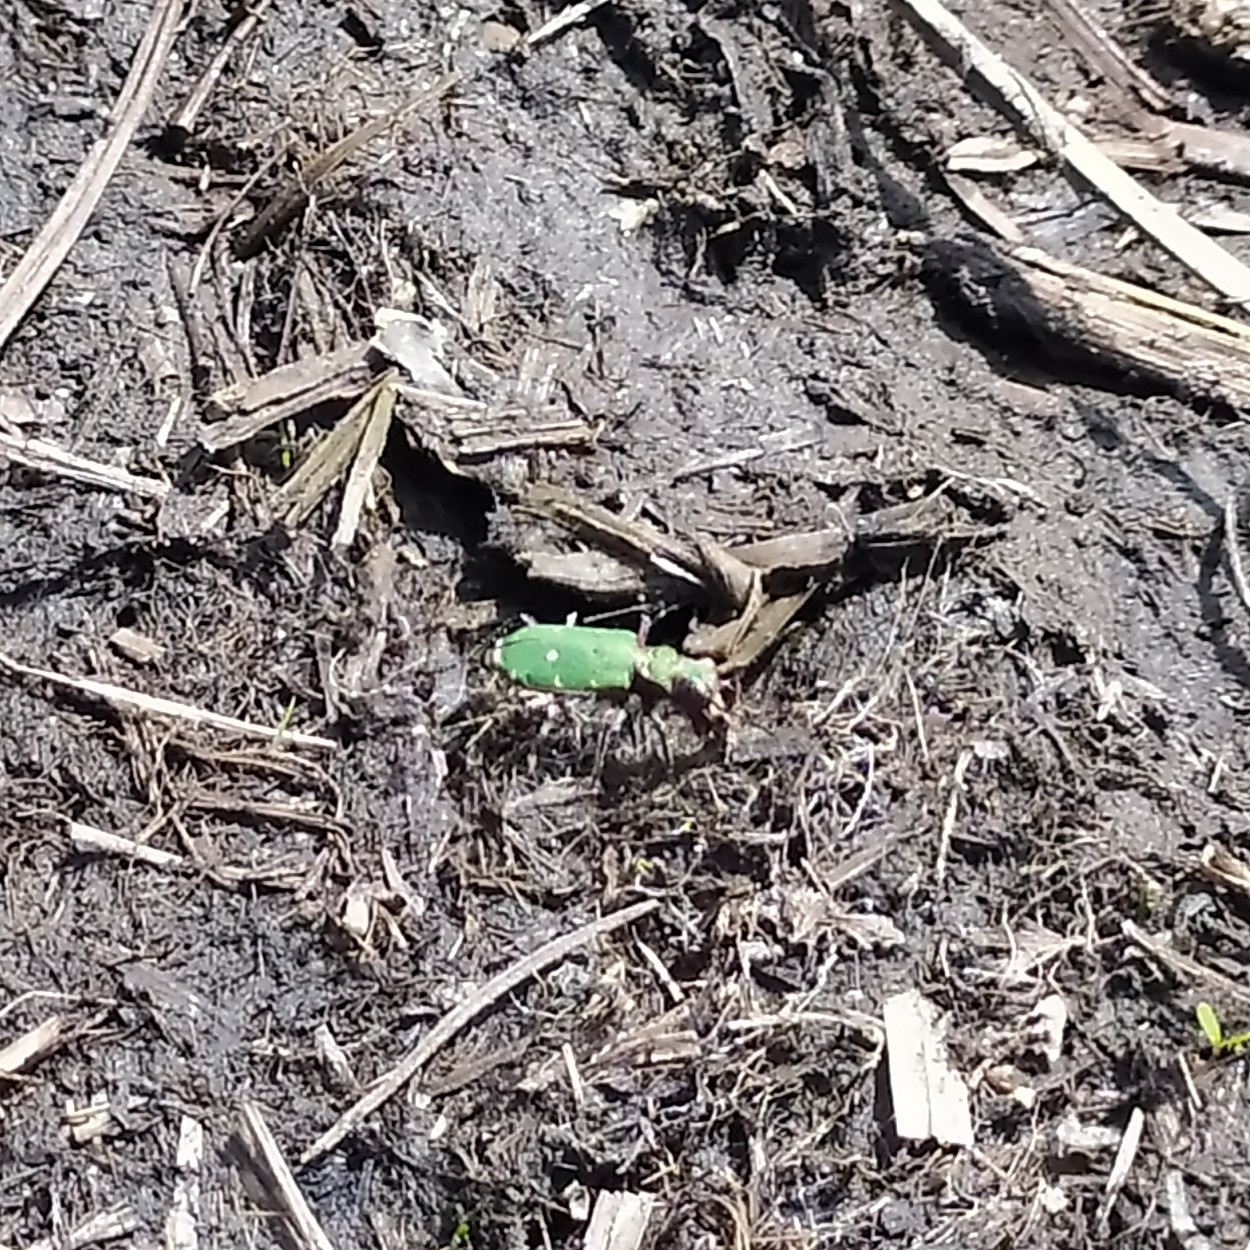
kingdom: Animalia
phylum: Arthropoda
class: Insecta
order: Coleoptera
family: Carabidae
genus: Cicindela
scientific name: Cicindela campestris
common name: Common tiger beetle
